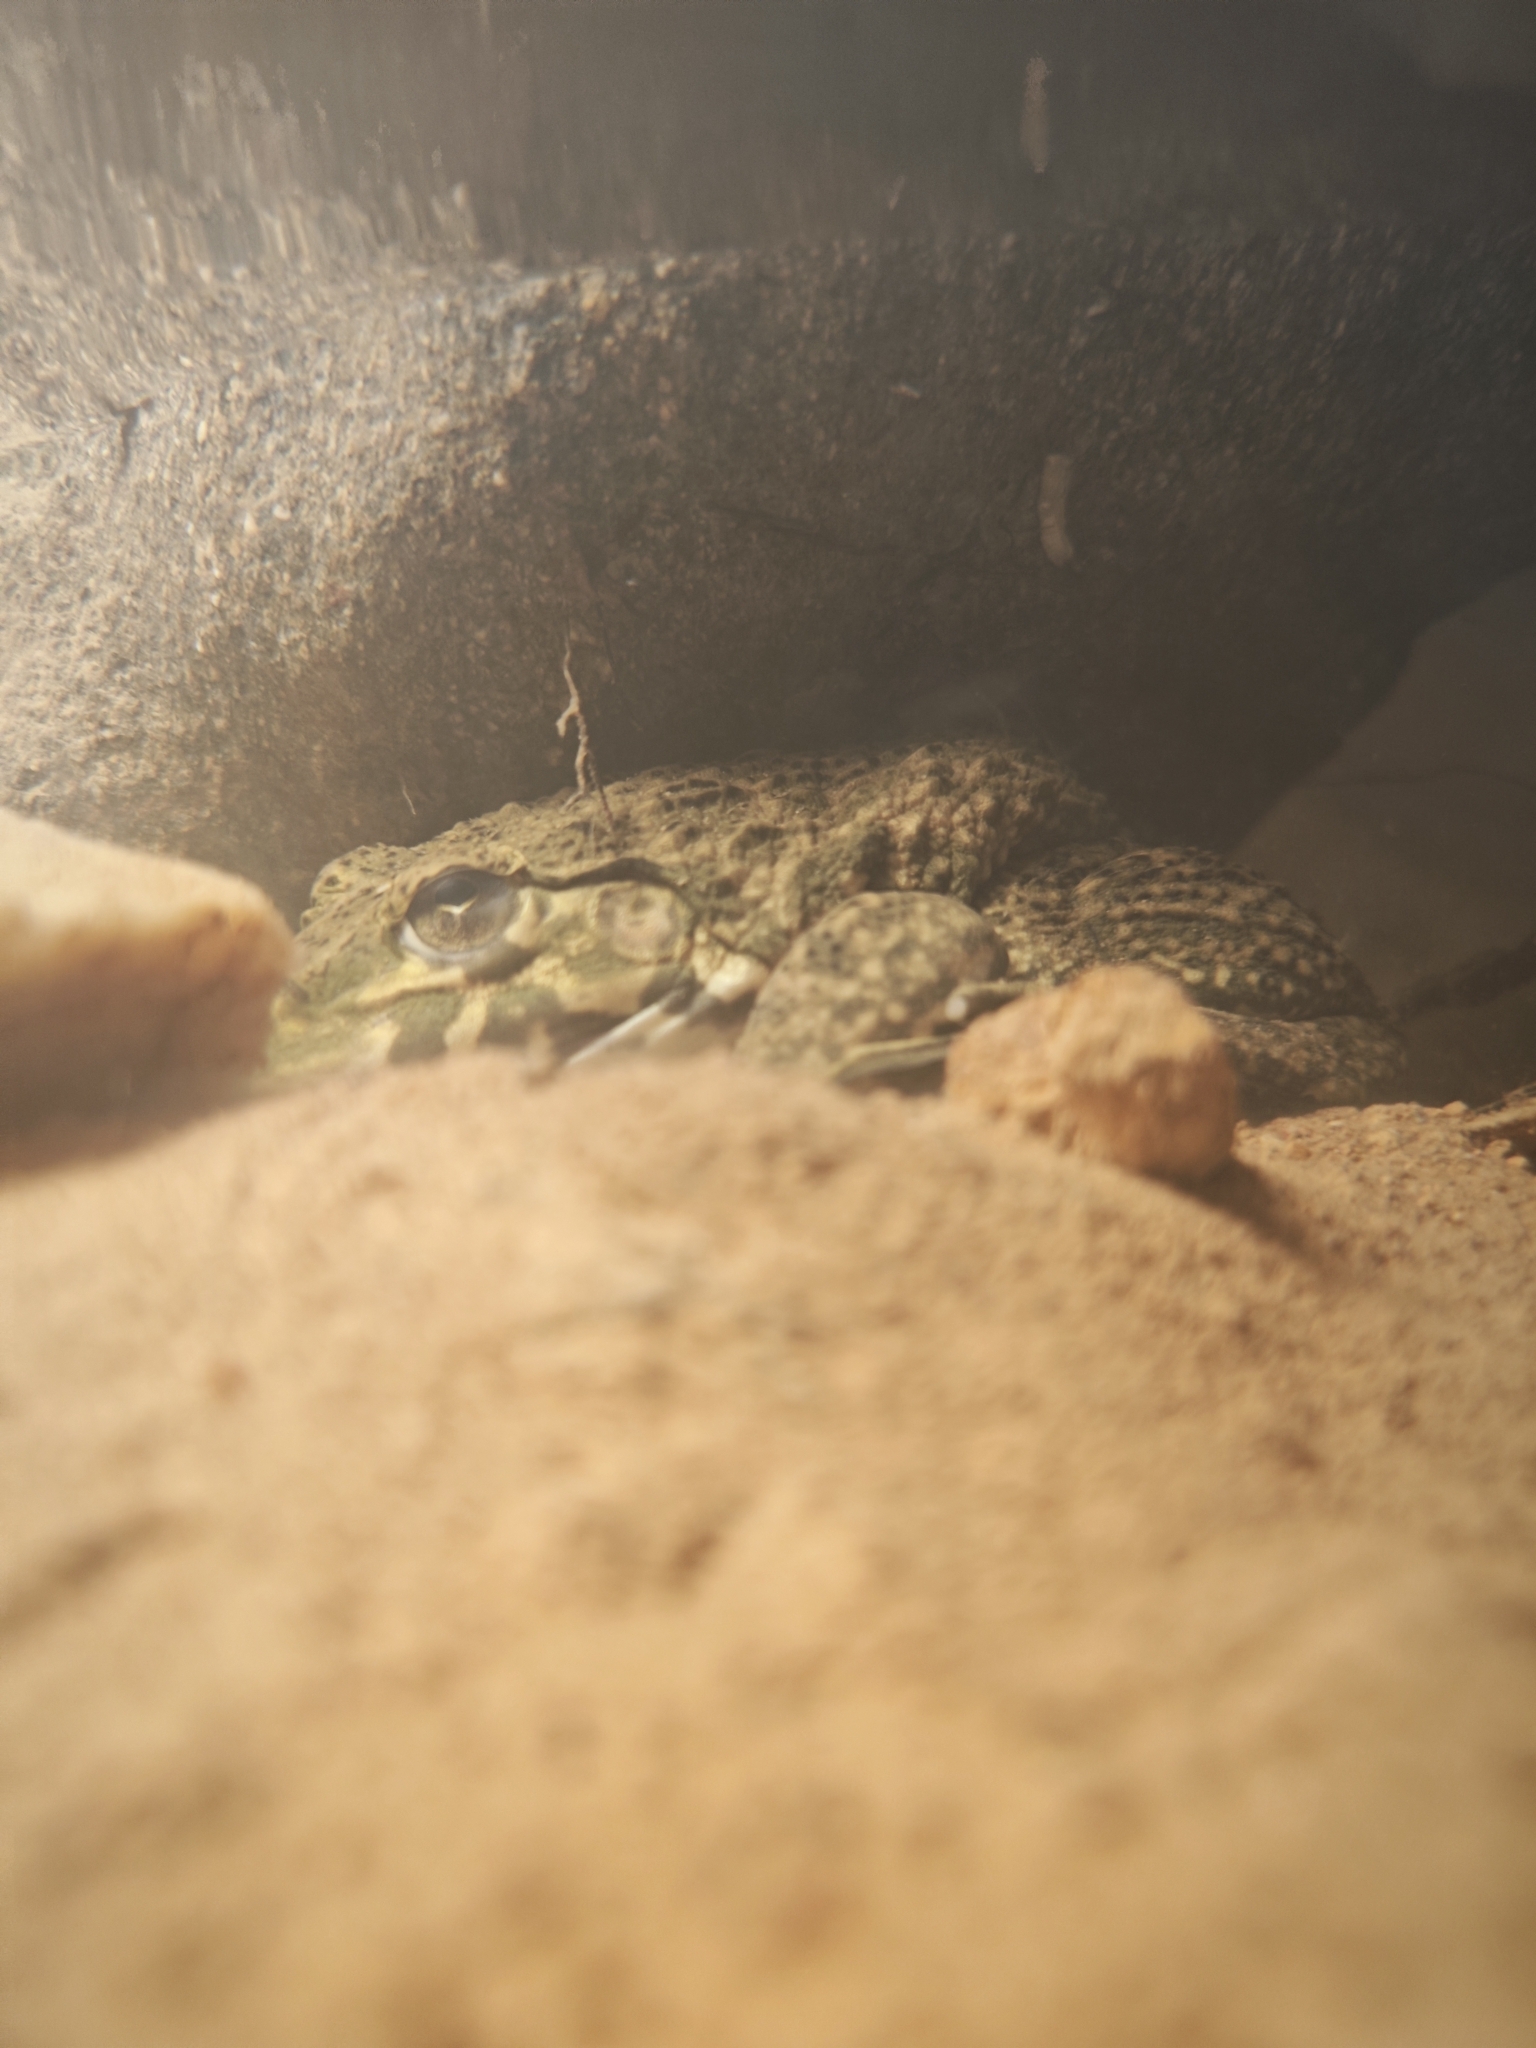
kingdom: Animalia
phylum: Chordata
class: Amphibia
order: Anura
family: Dicroglossidae
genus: Hoplobatrachus
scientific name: Hoplobatrachus rugulosus
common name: Chinese edible frog
